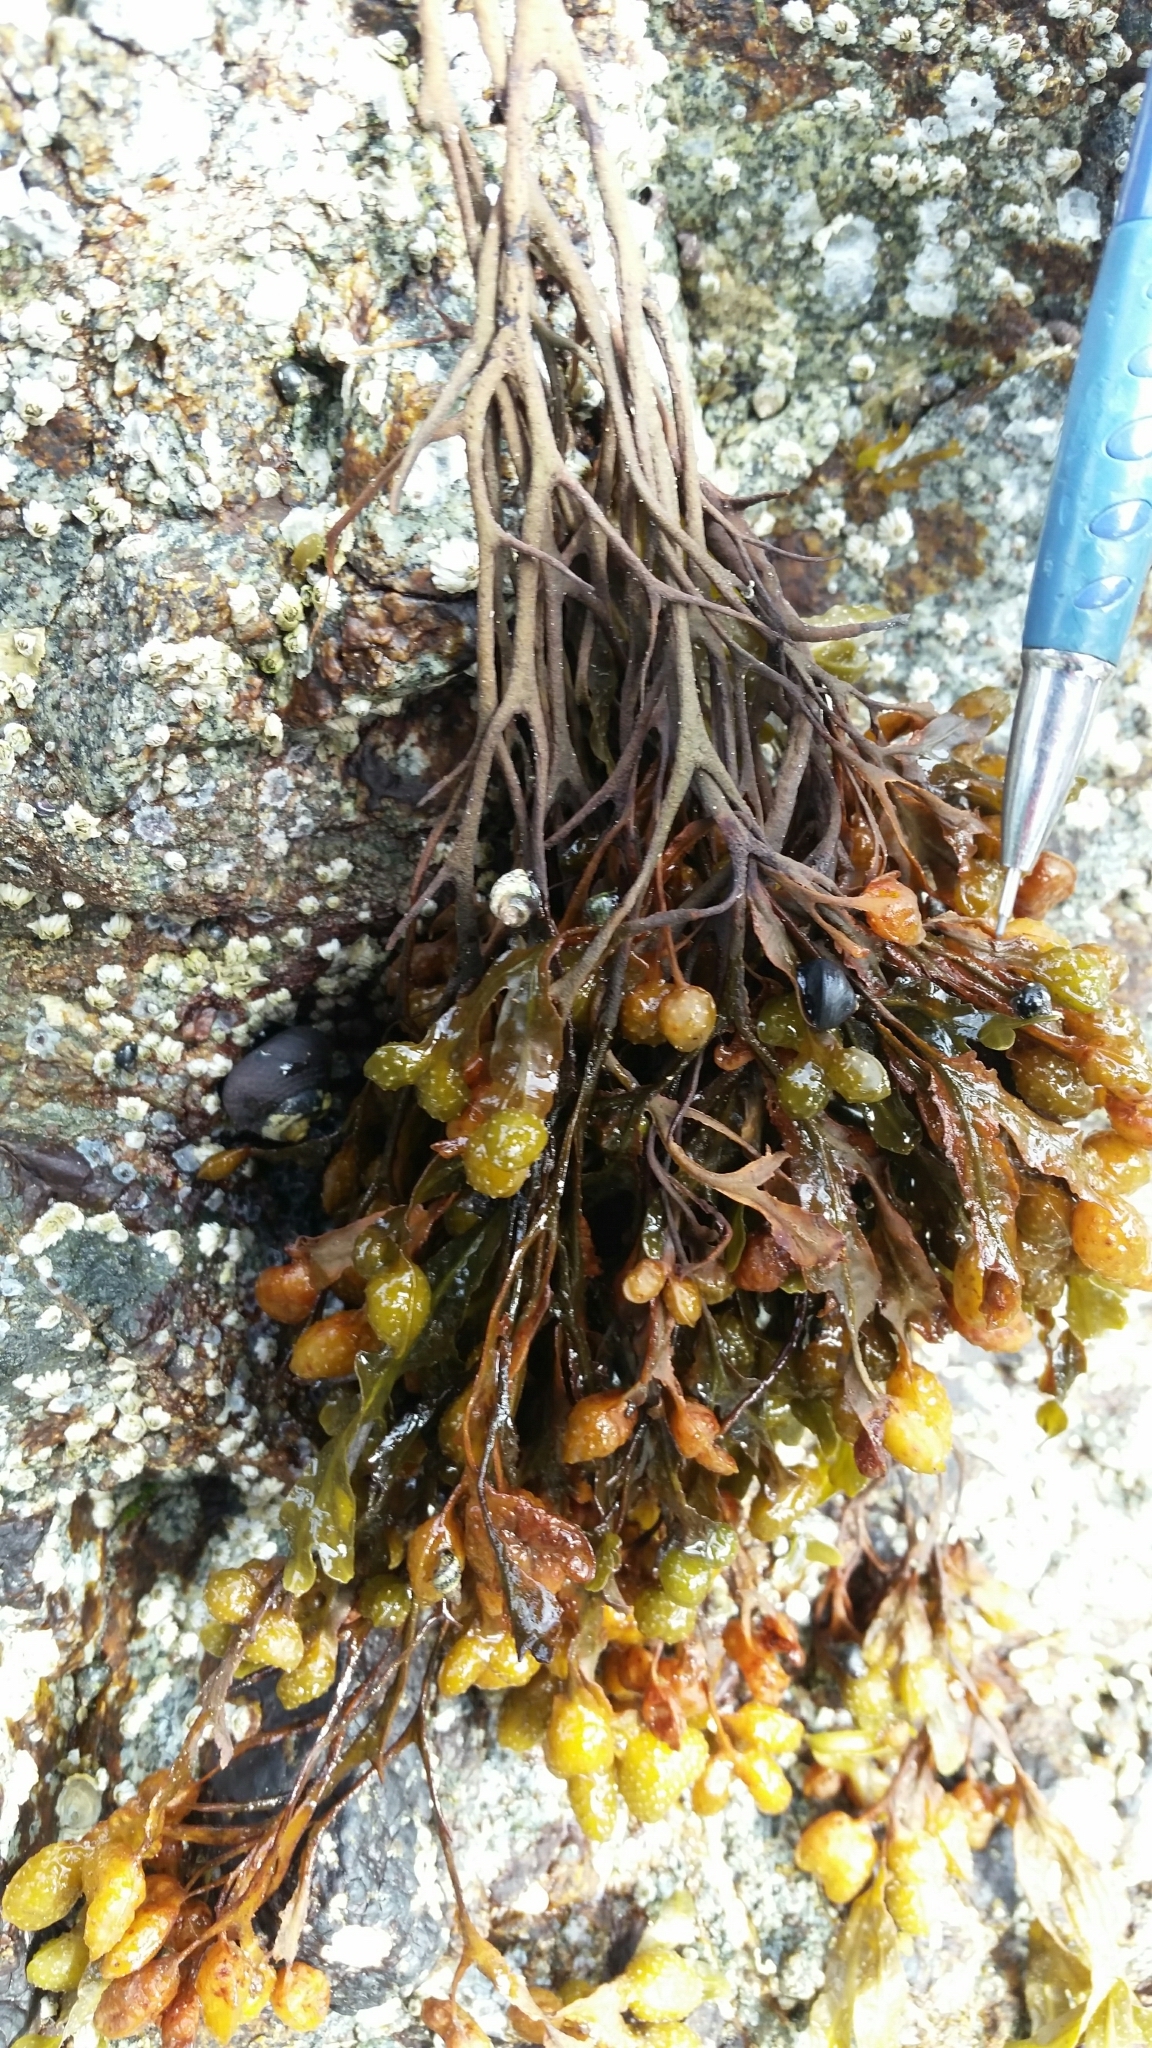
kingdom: Chromista
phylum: Ochrophyta
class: Phaeophyceae
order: Fucales
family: Fucaceae
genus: Fucus
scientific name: Fucus distichus
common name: Rockweed
